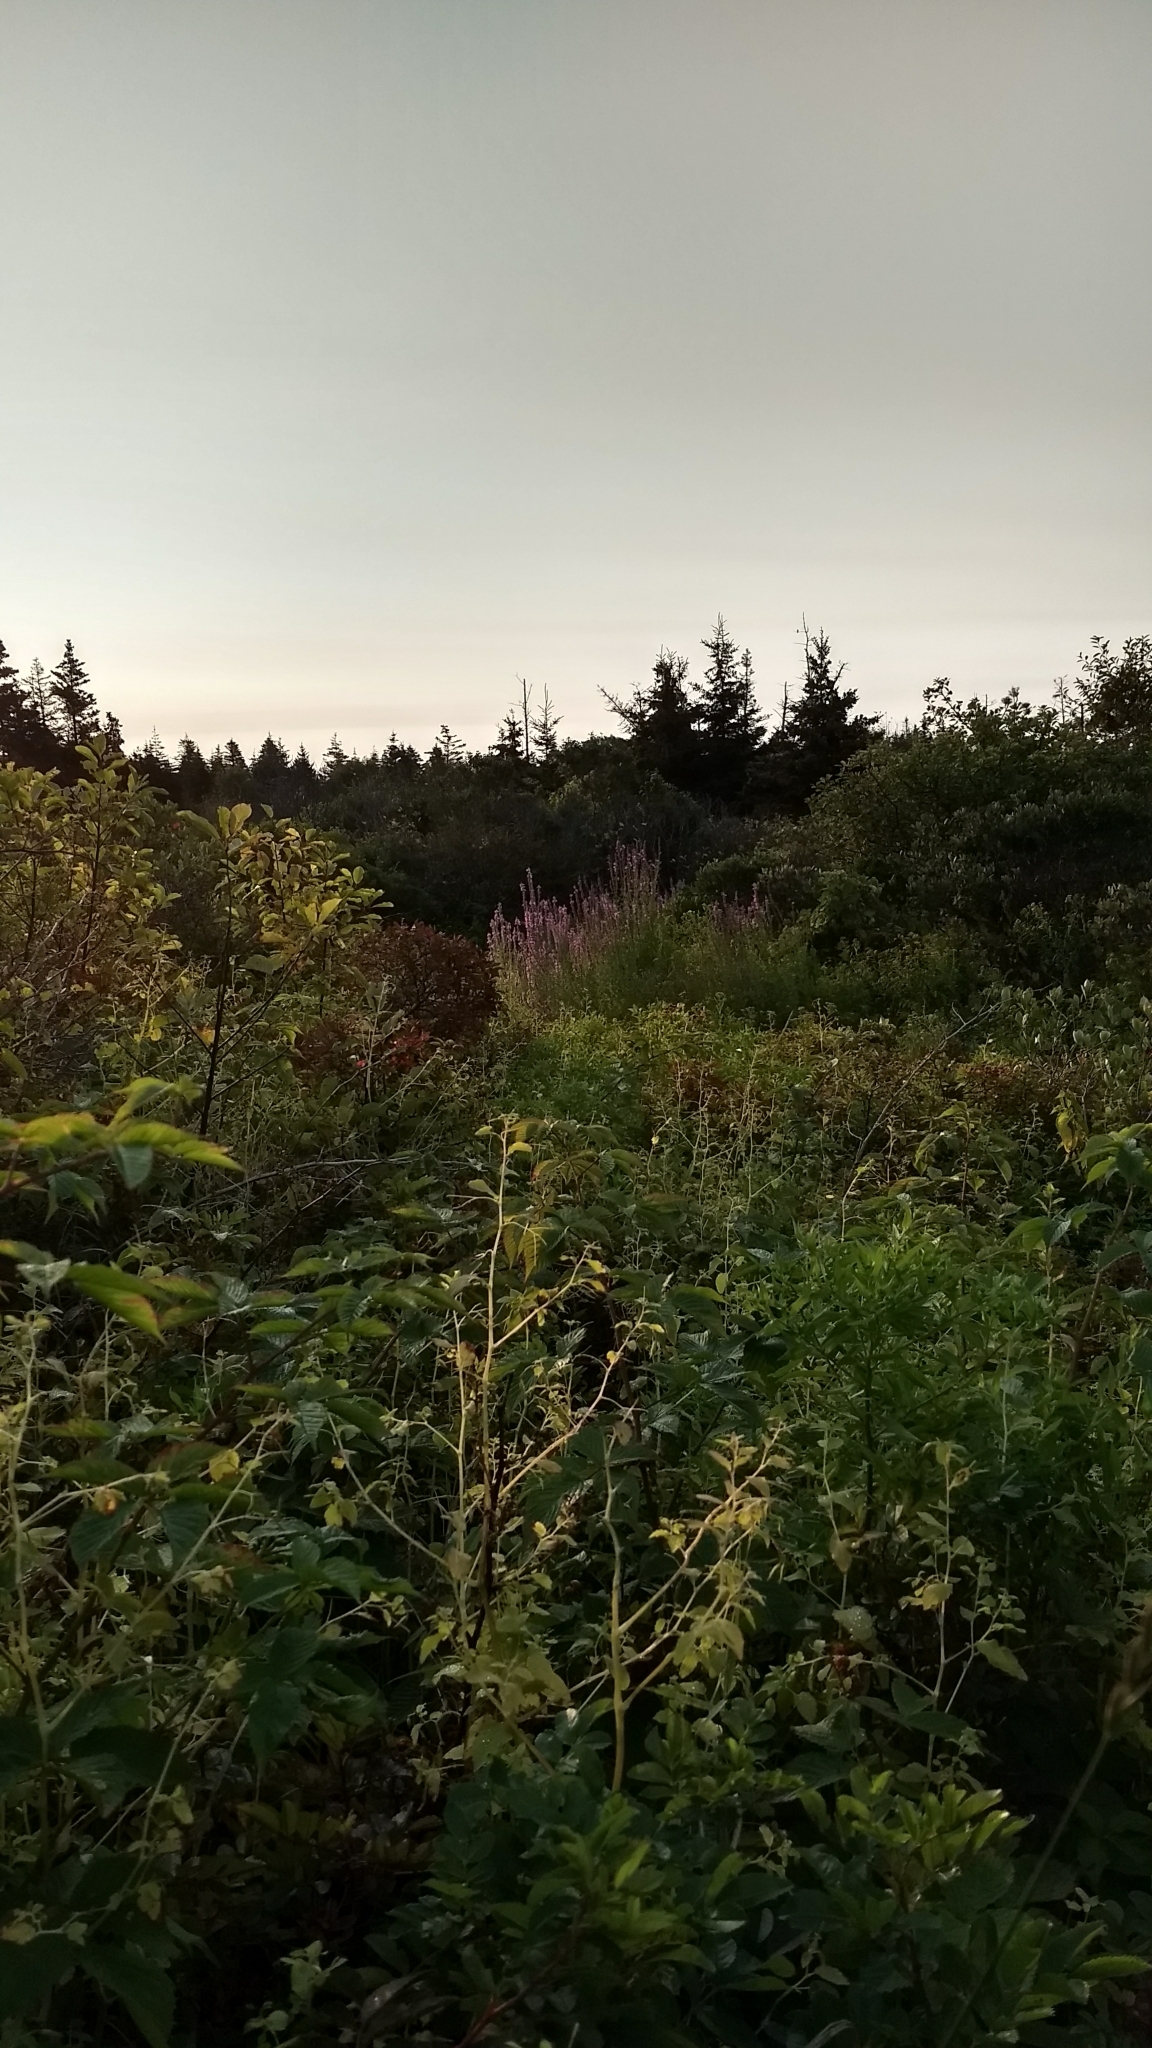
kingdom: Plantae
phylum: Tracheophyta
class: Magnoliopsida
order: Myrtales
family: Lythraceae
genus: Lythrum
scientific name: Lythrum salicaria
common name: Purple loosestrife
